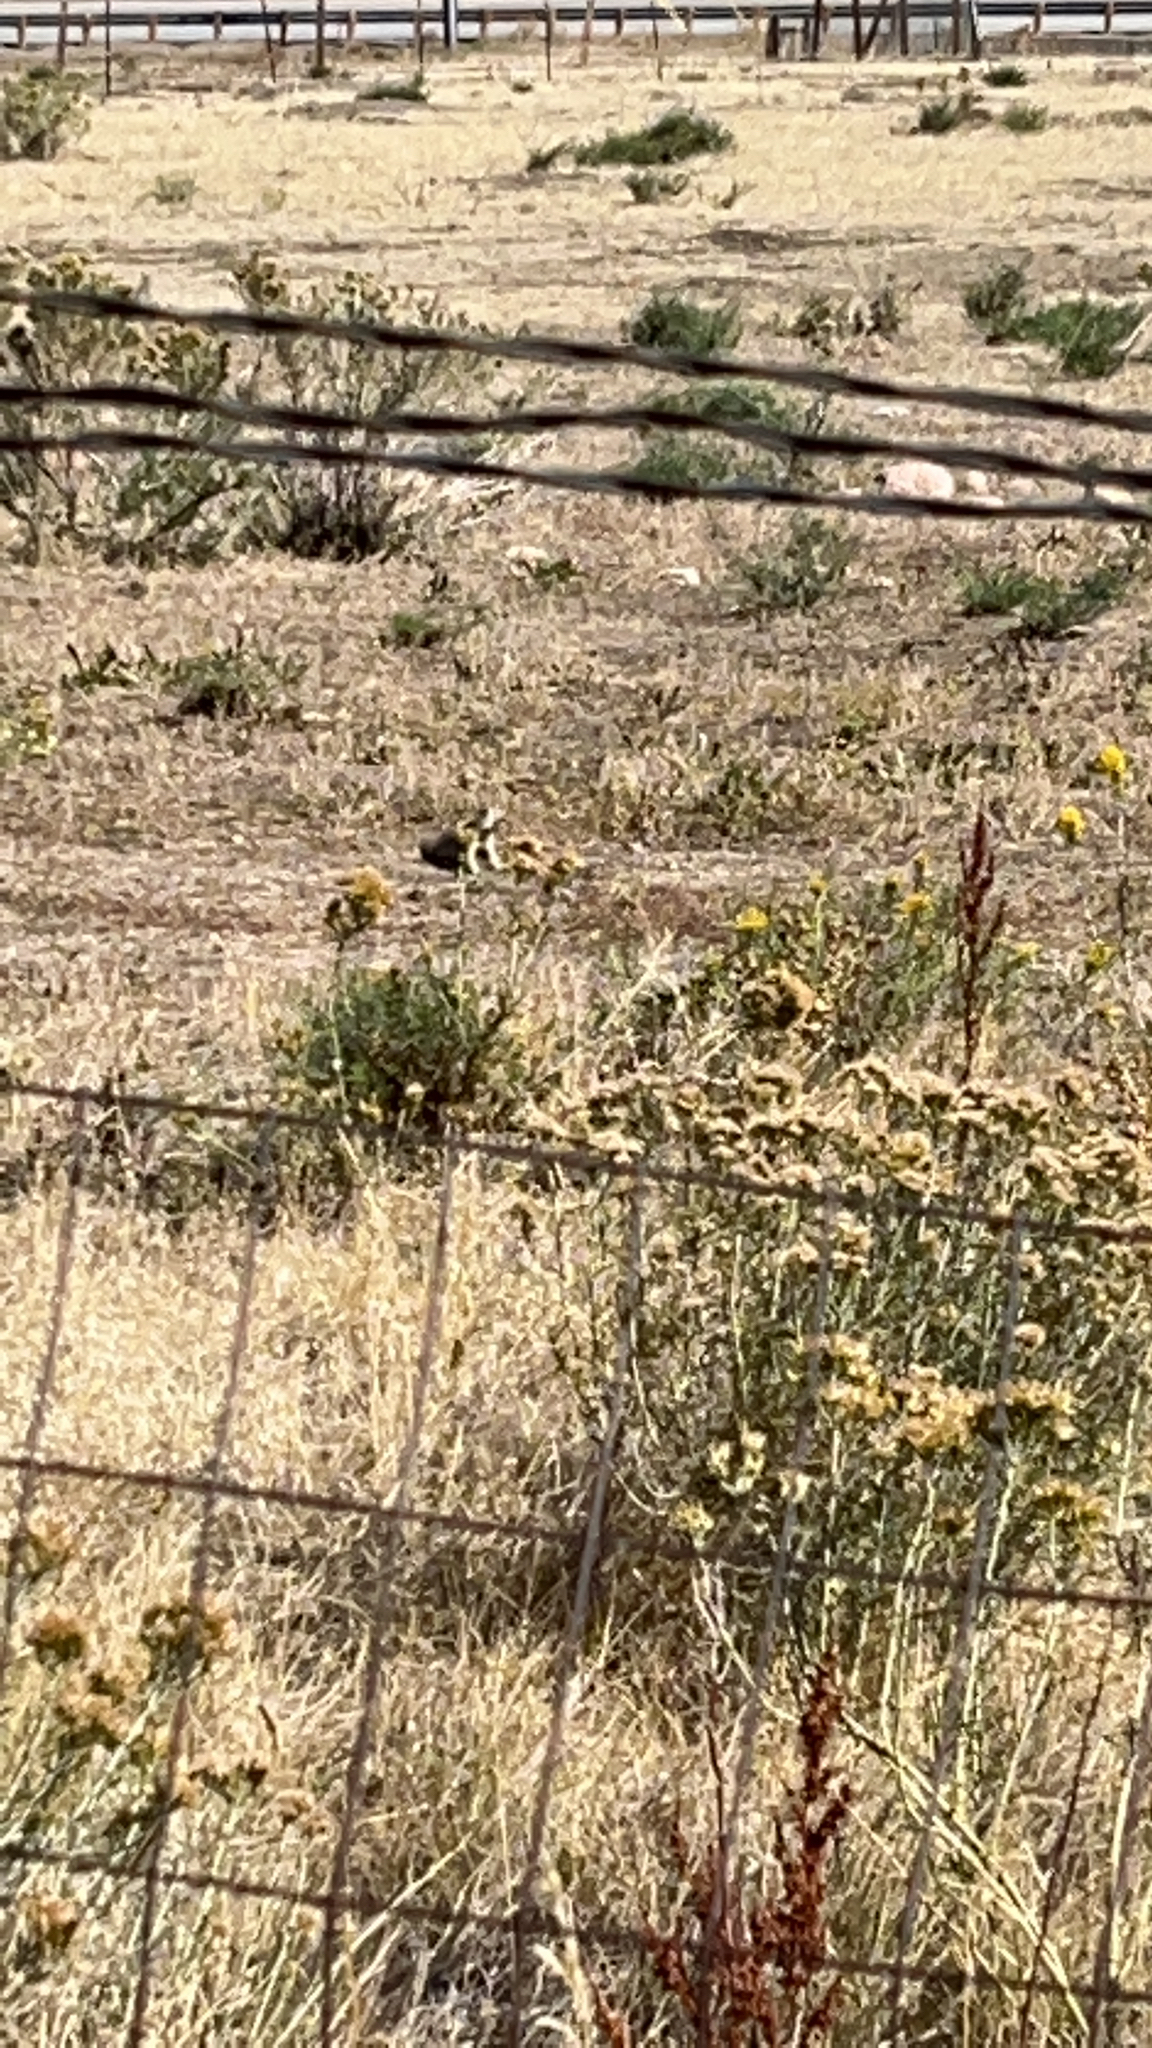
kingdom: Animalia
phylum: Chordata
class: Mammalia
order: Rodentia
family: Sciuridae
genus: Cynomys
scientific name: Cynomys ludovicianus
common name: Black-tailed prairie dog
